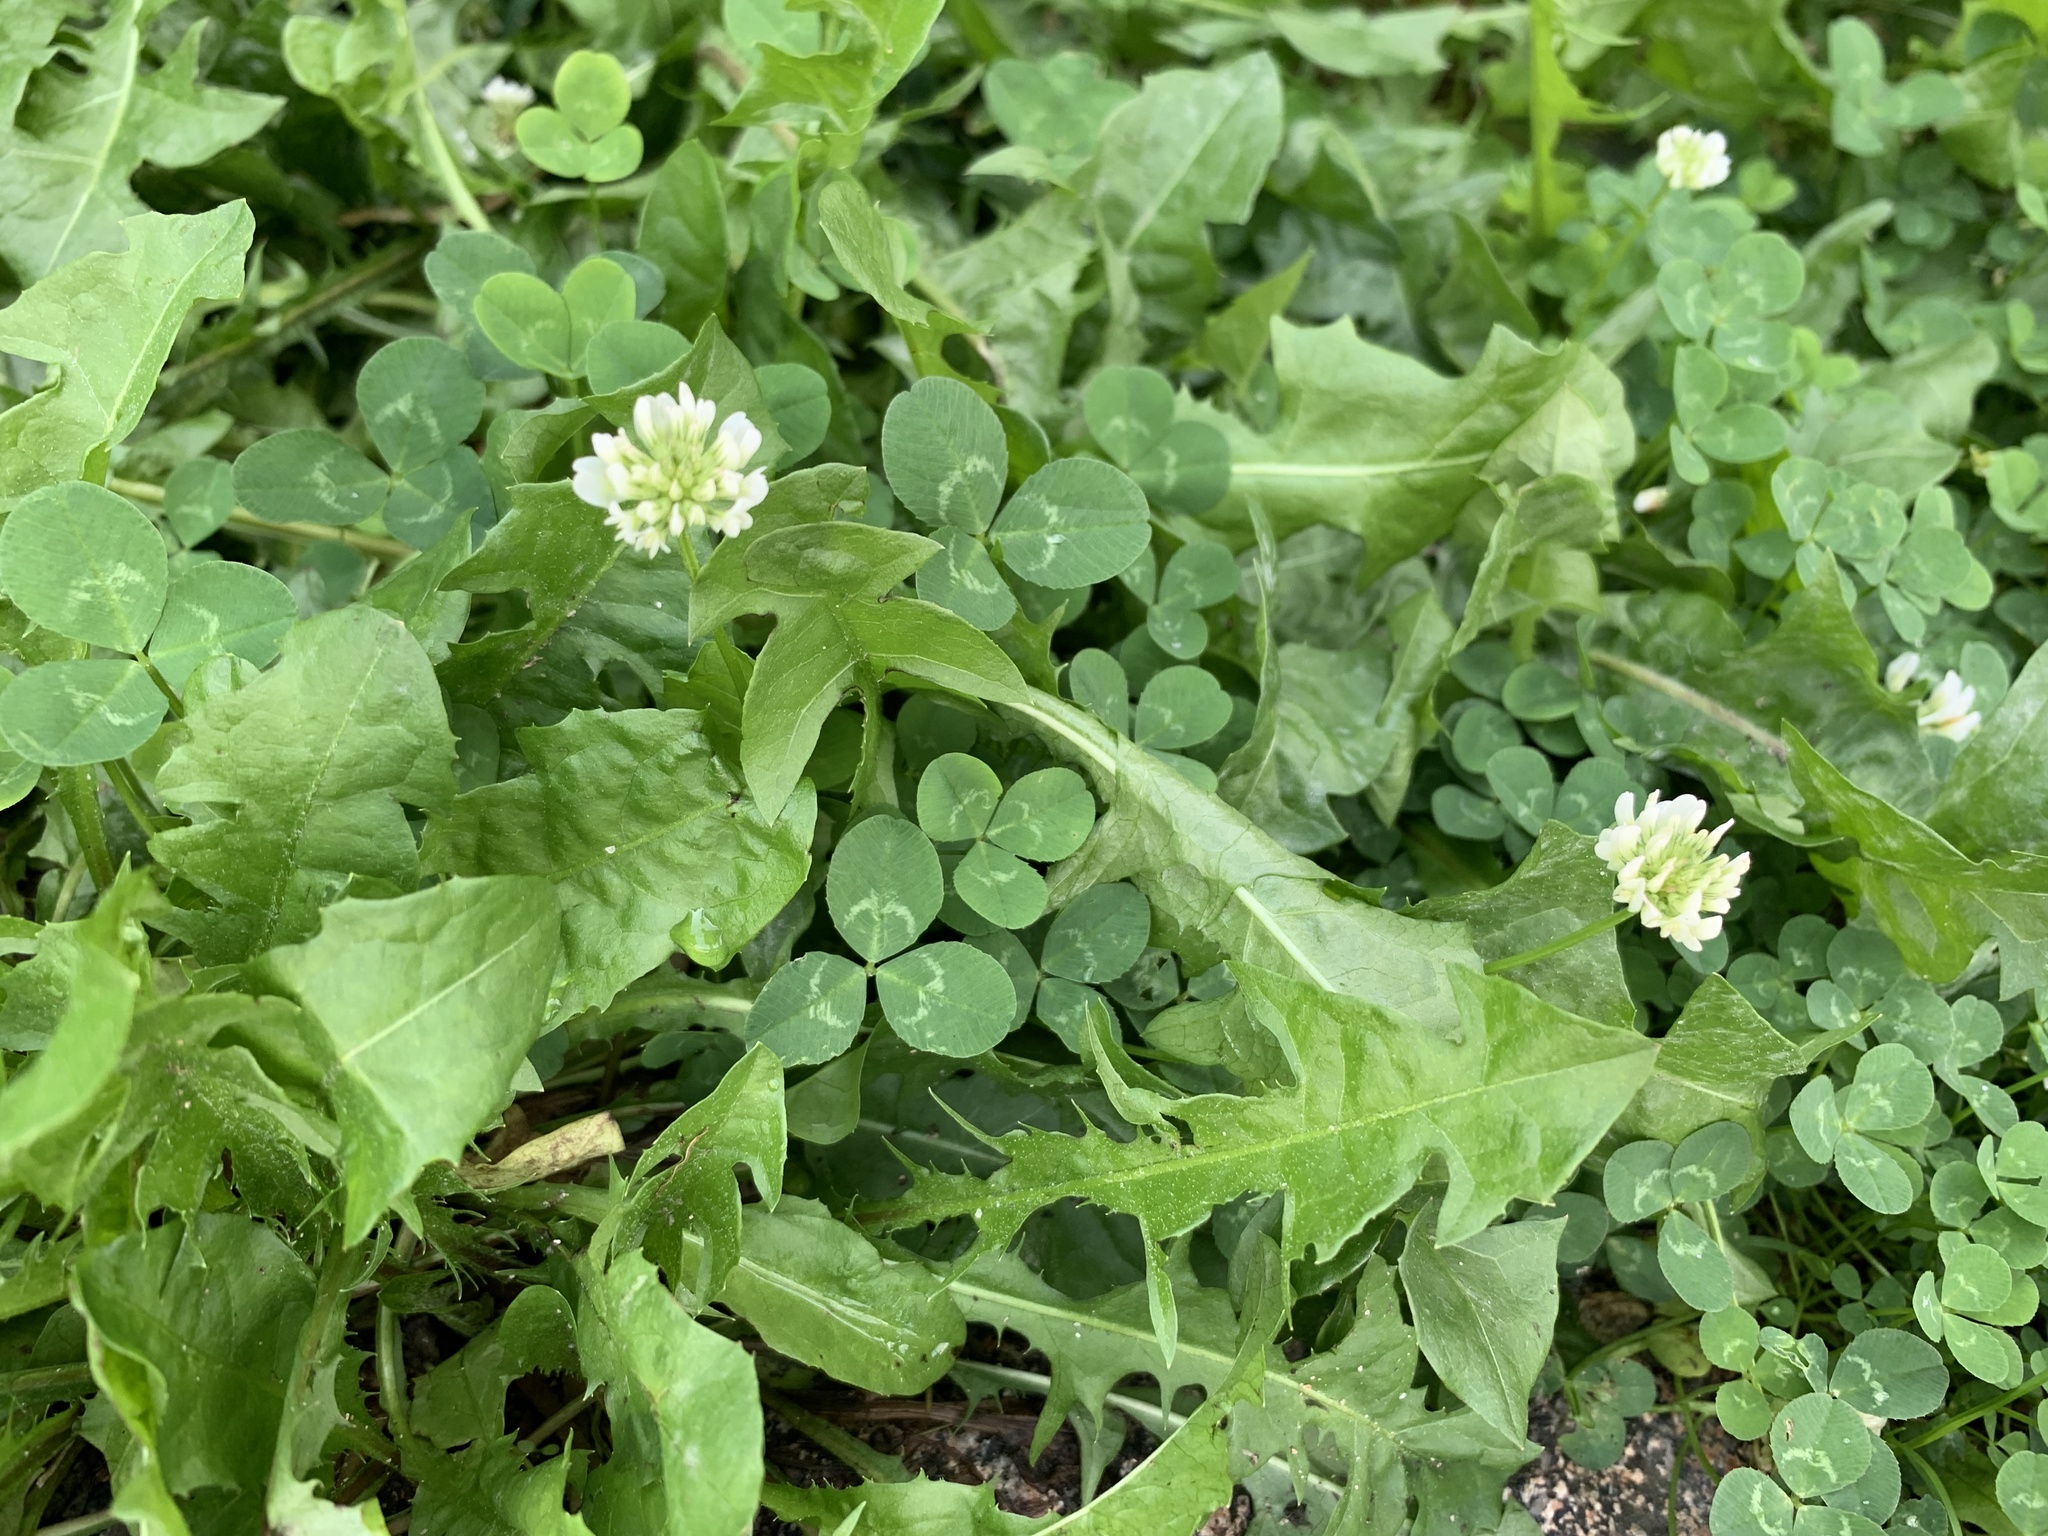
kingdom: Plantae
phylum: Tracheophyta
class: Magnoliopsida
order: Fabales
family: Fabaceae
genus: Trifolium
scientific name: Trifolium repens
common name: White clover
